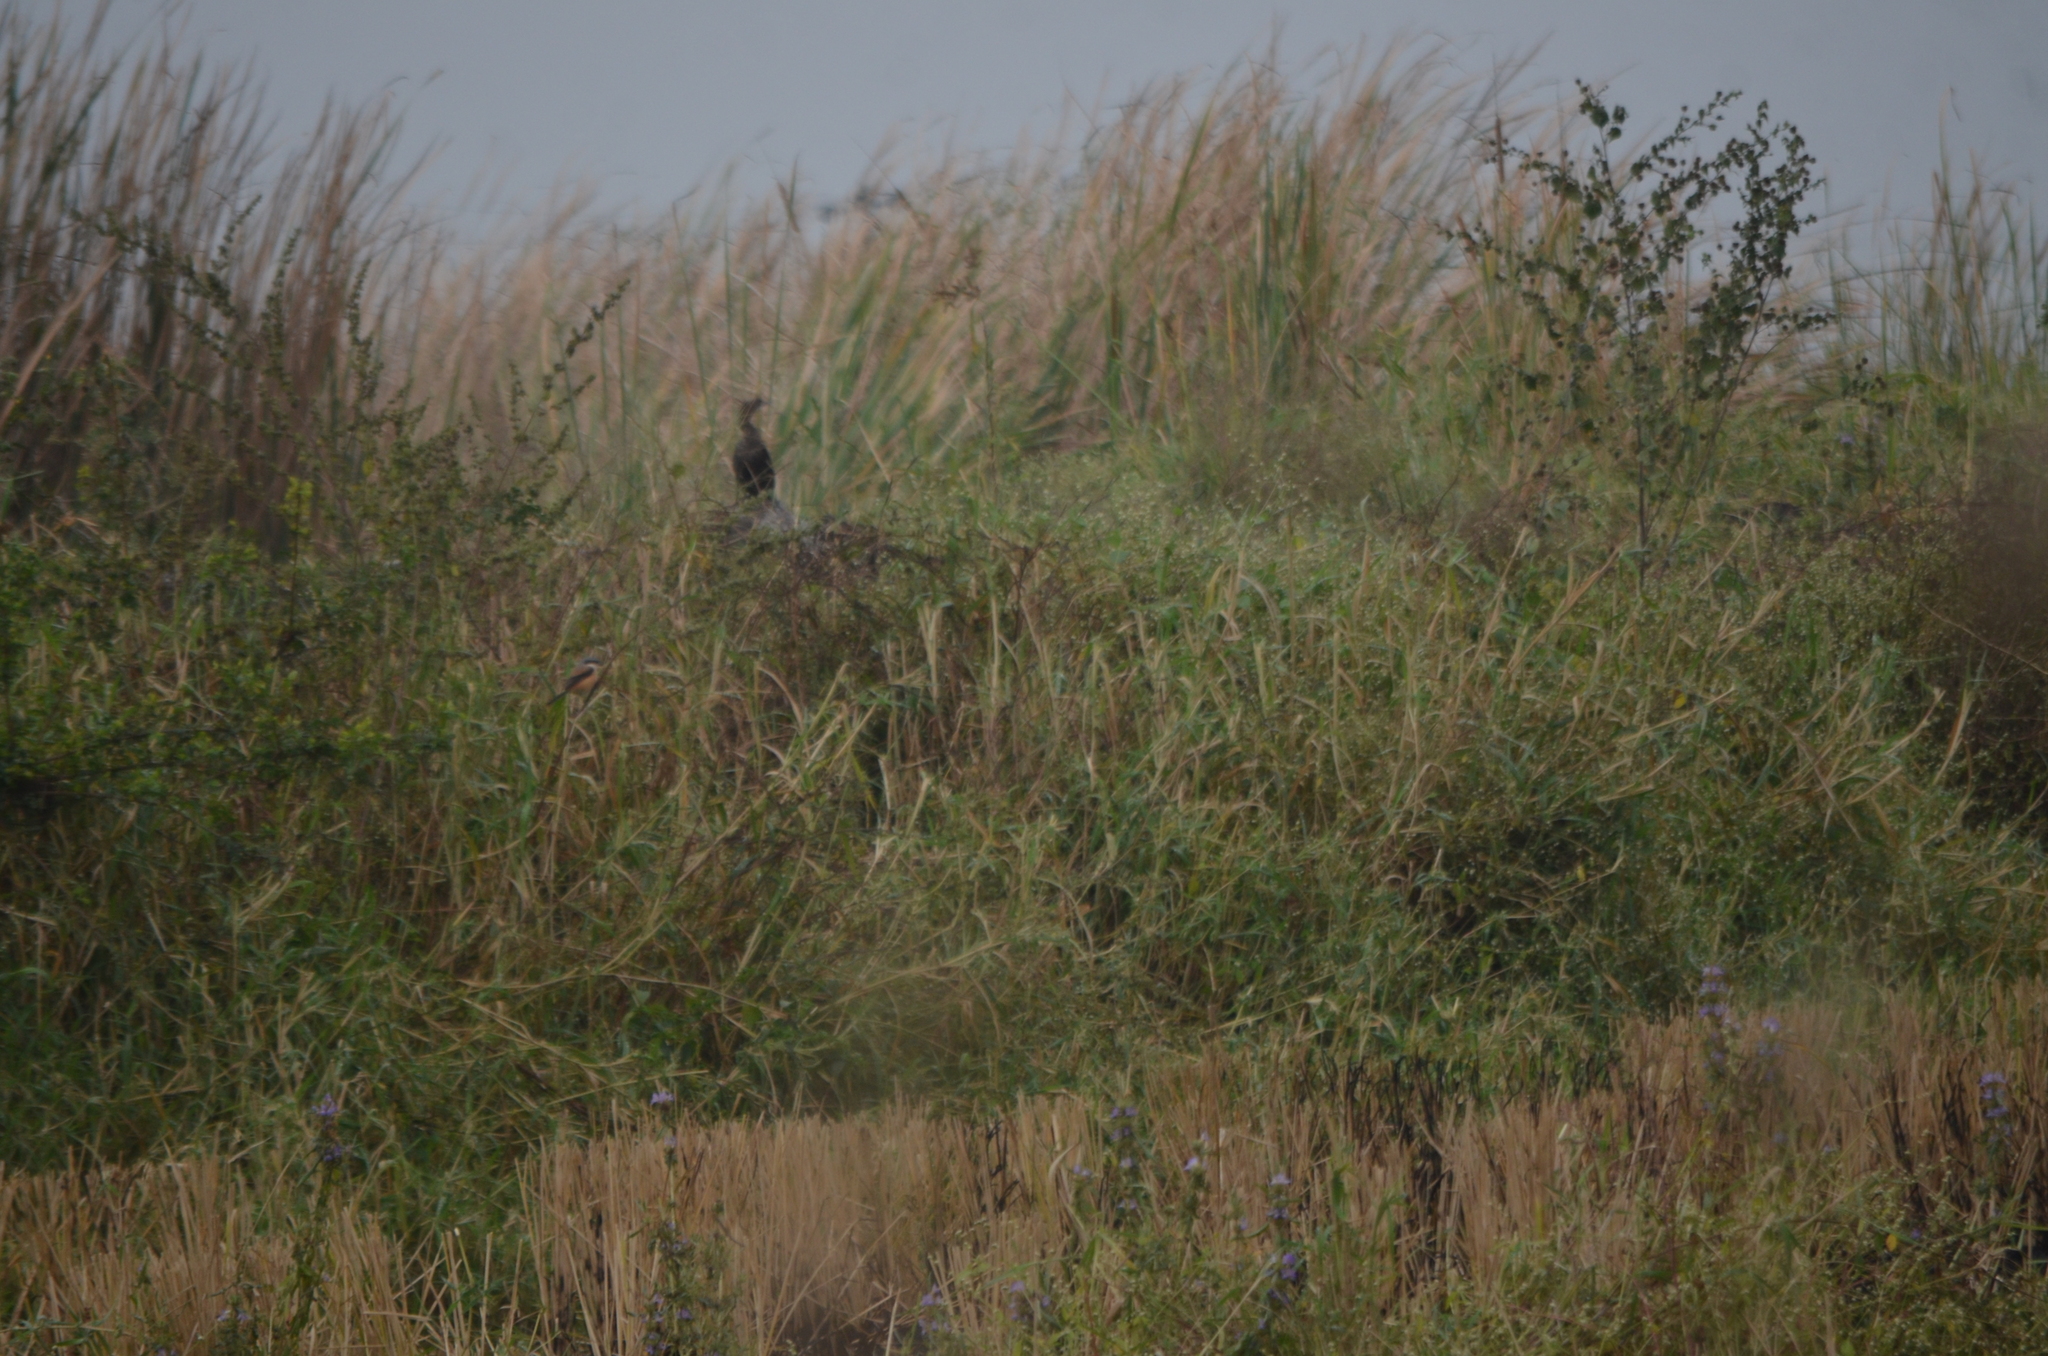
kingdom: Animalia
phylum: Chordata
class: Aves
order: Suliformes
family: Phalacrocoracidae
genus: Microcarbo
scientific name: Microcarbo niger
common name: Little cormorant
